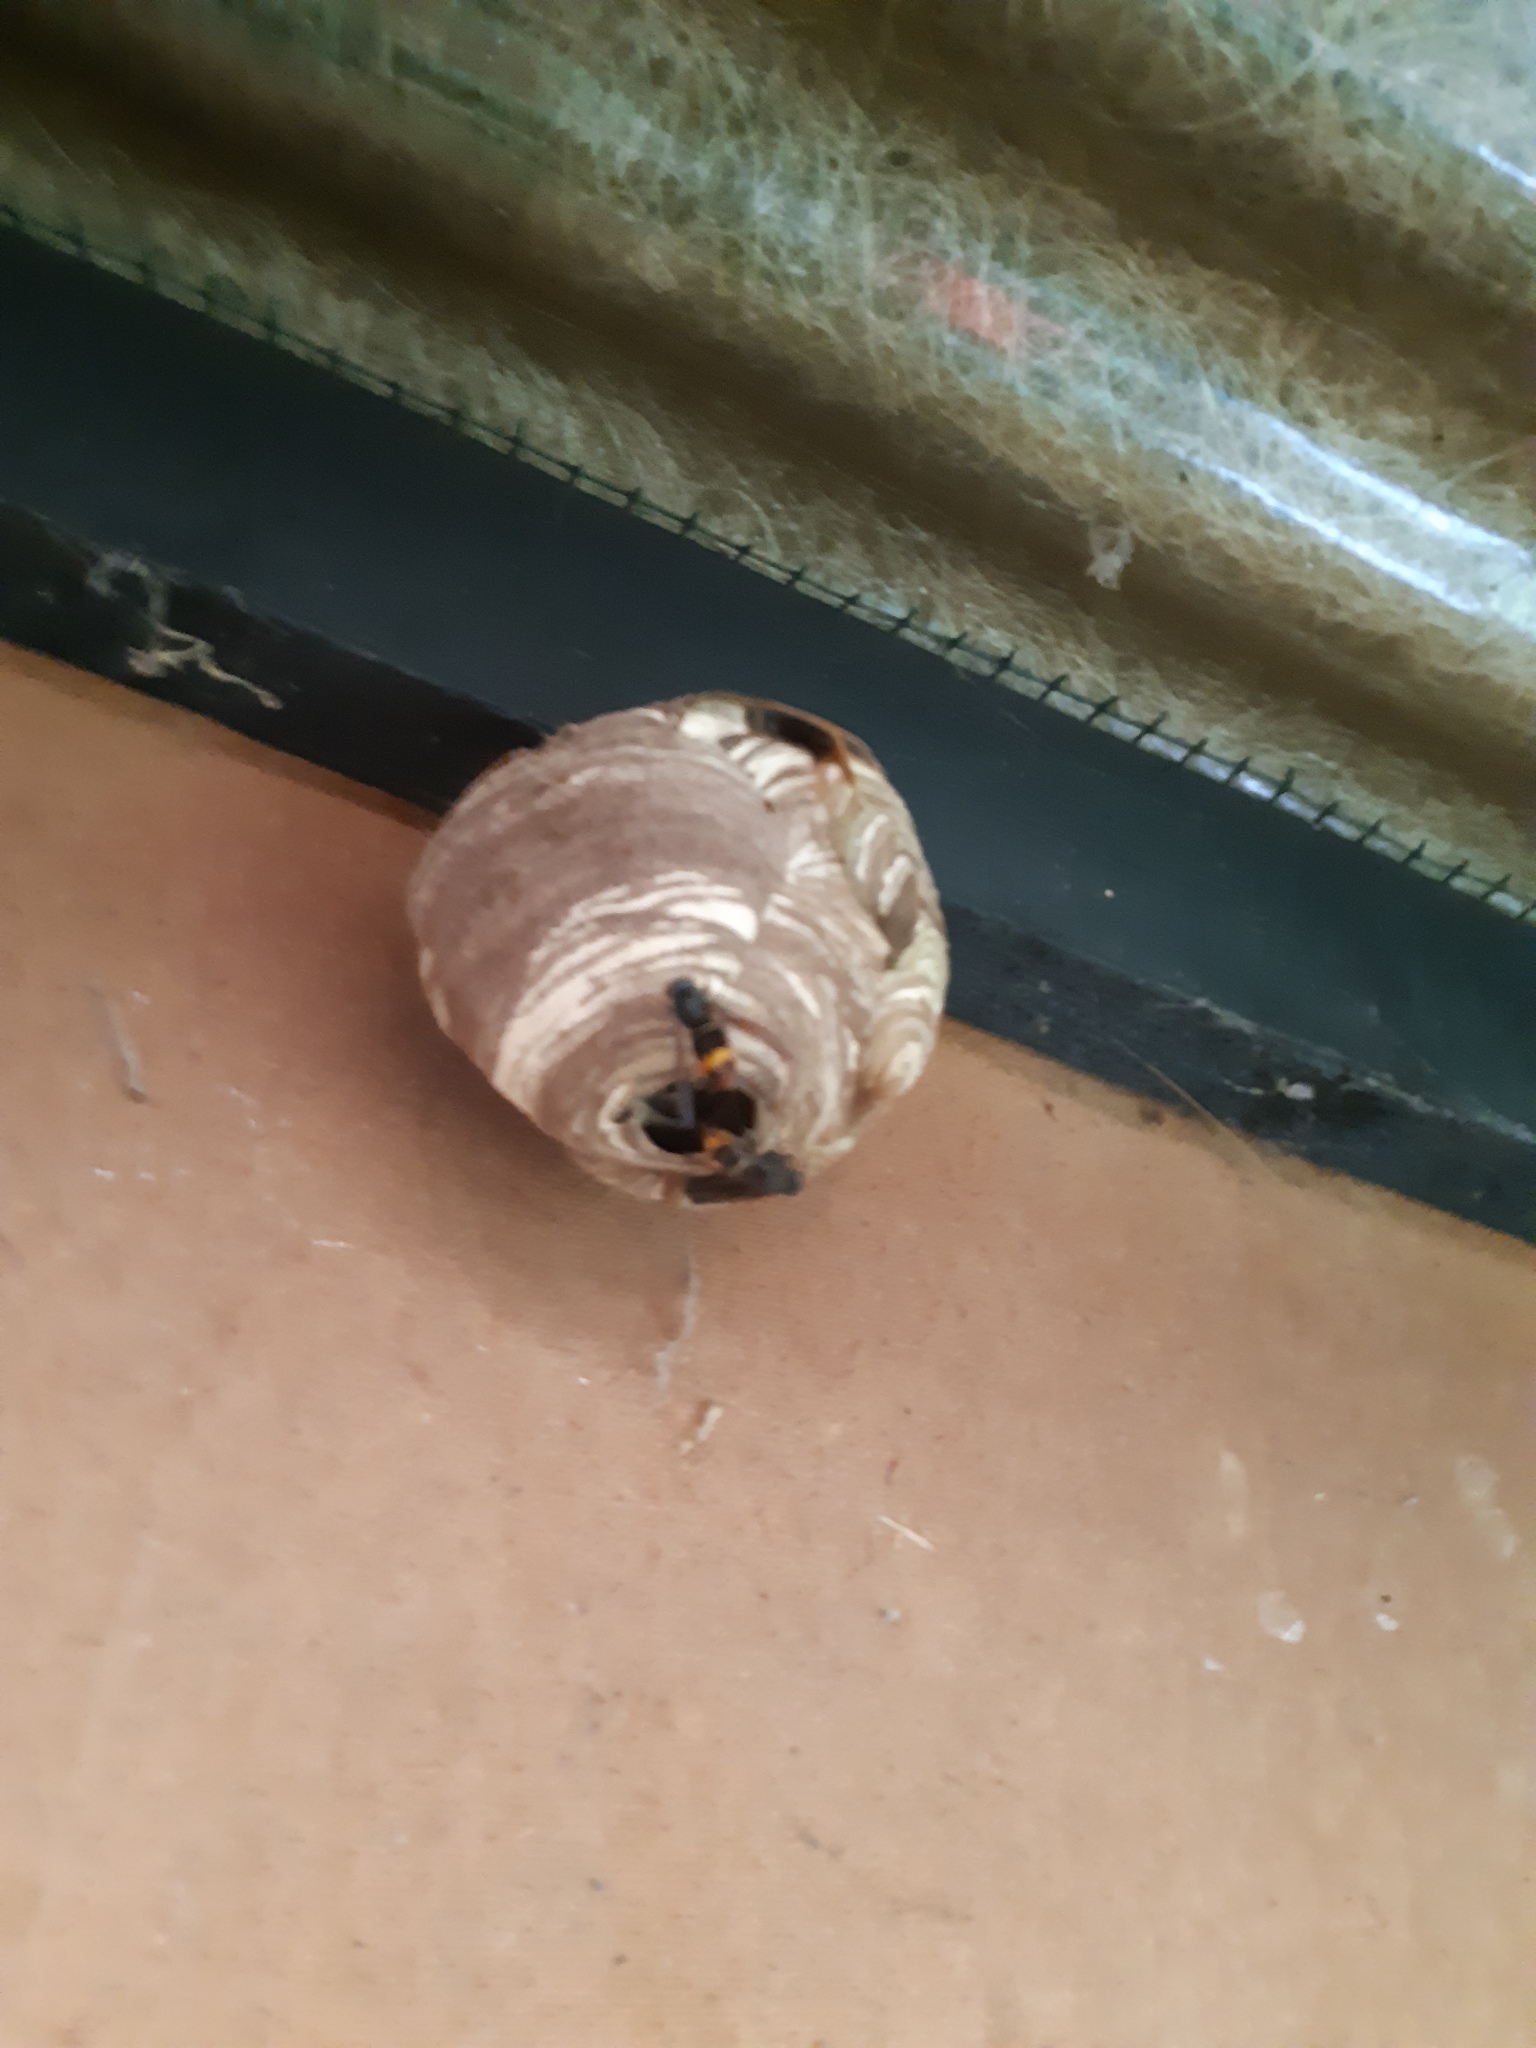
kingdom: Animalia
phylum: Arthropoda
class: Insecta
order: Hymenoptera
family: Vespidae
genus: Vespa
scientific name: Vespa velutina
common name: Asian hornet
